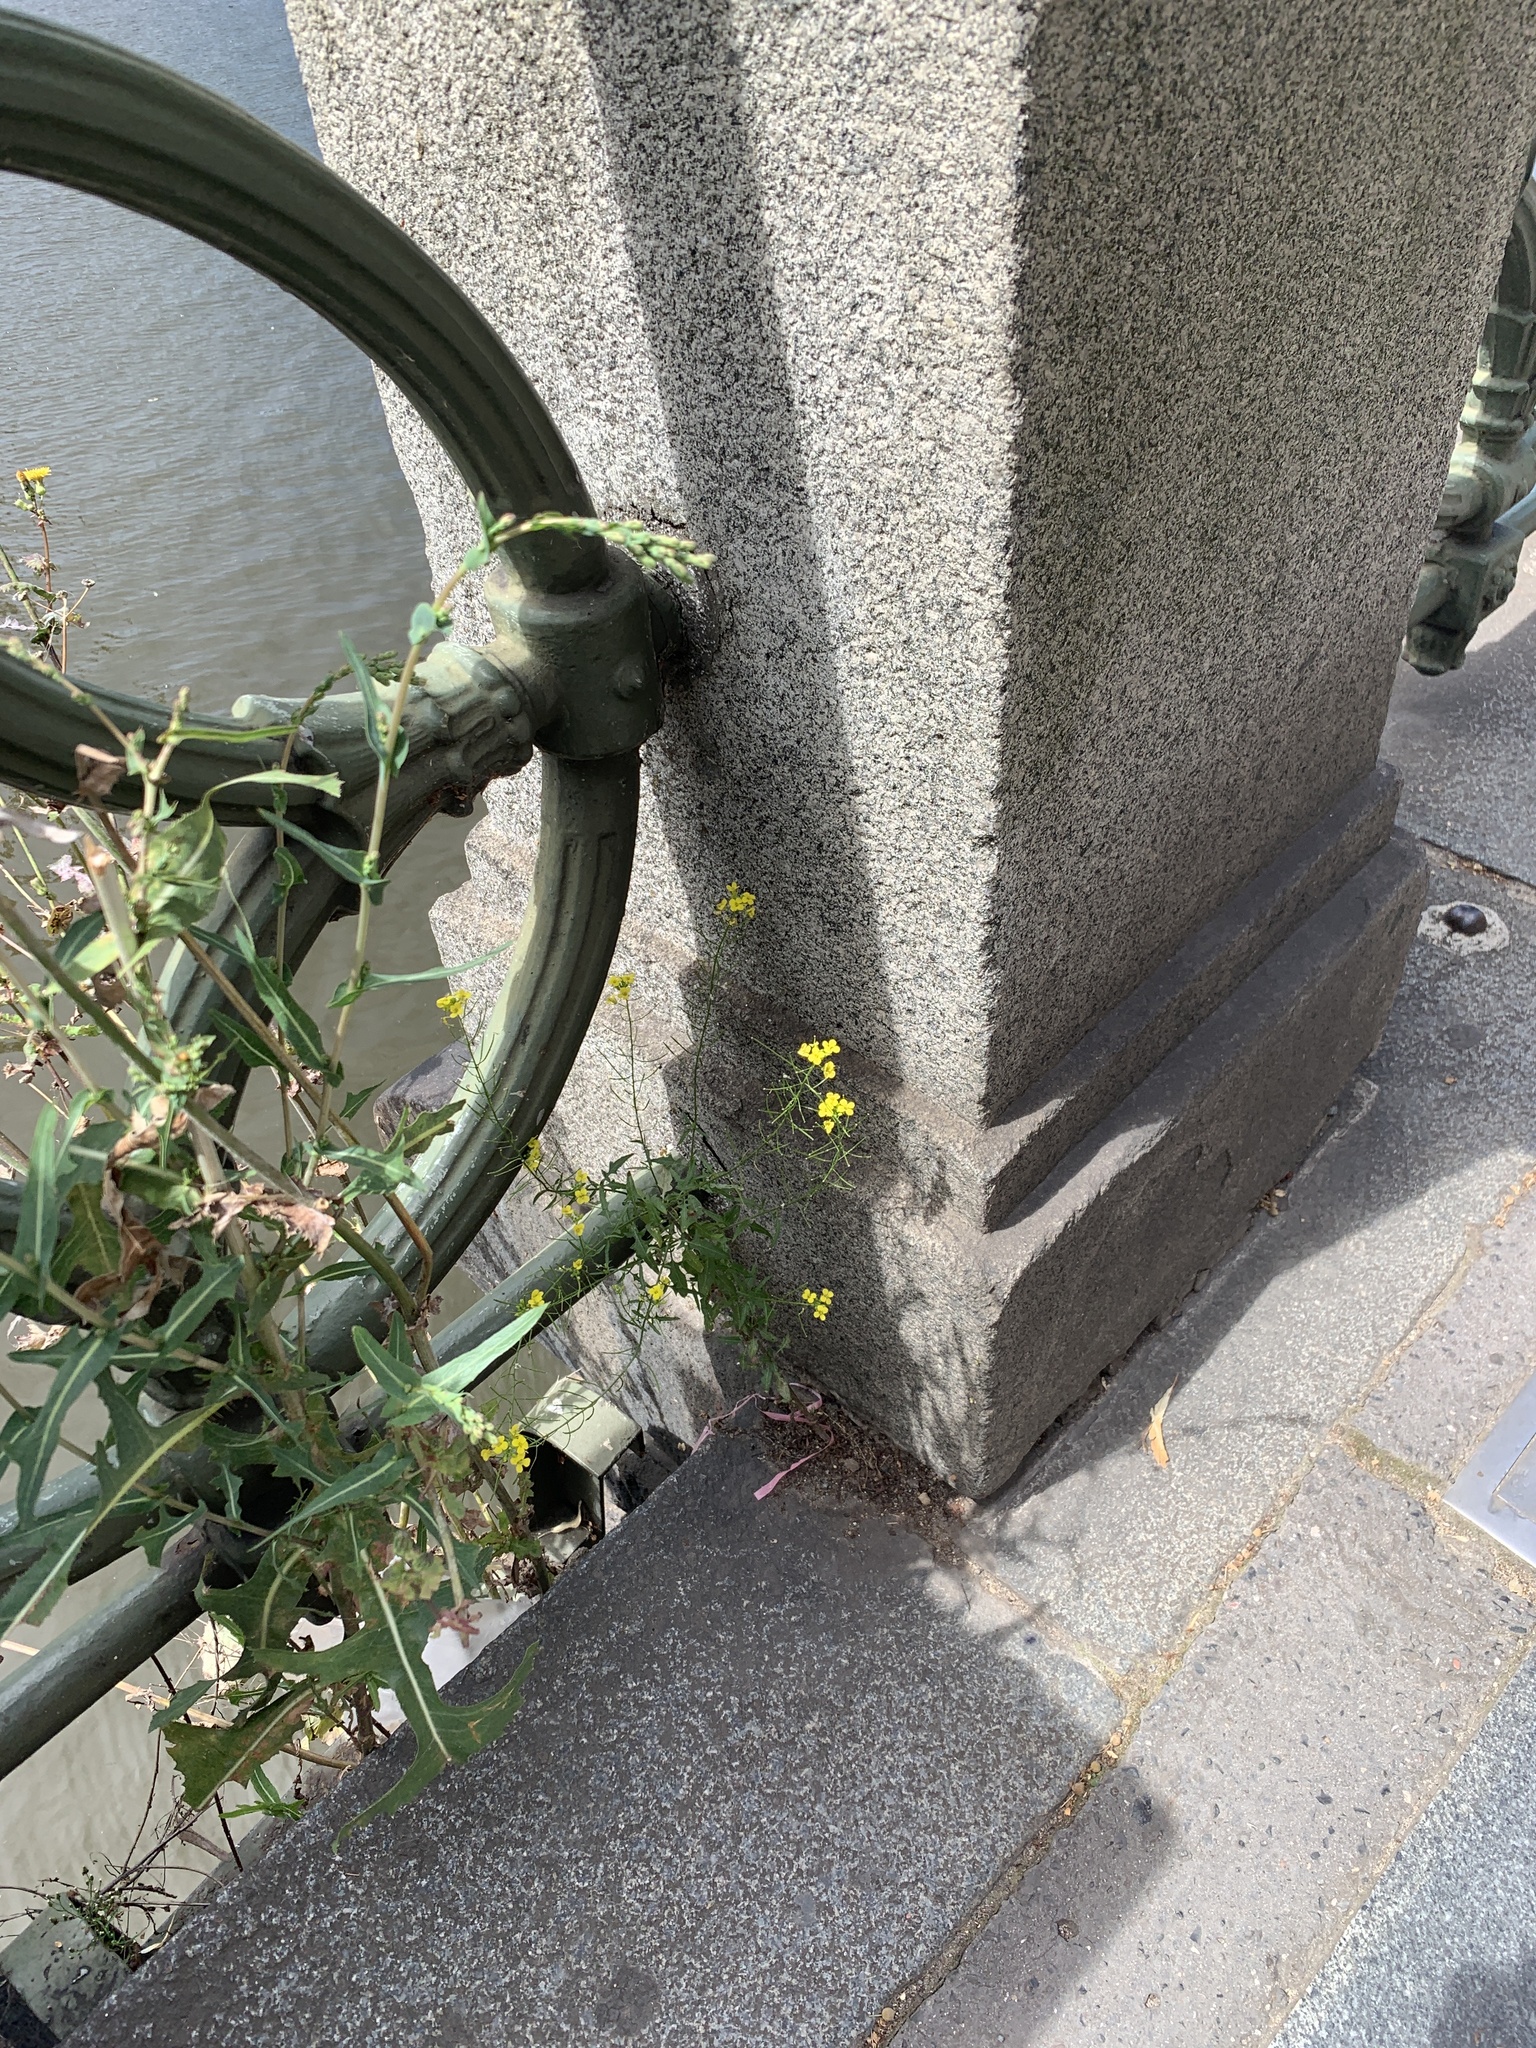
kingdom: Plantae
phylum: Tracheophyta
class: Magnoliopsida
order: Brassicales
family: Brassicaceae
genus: Sisymbrium
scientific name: Sisymbrium loeselii
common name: False london-rocket
